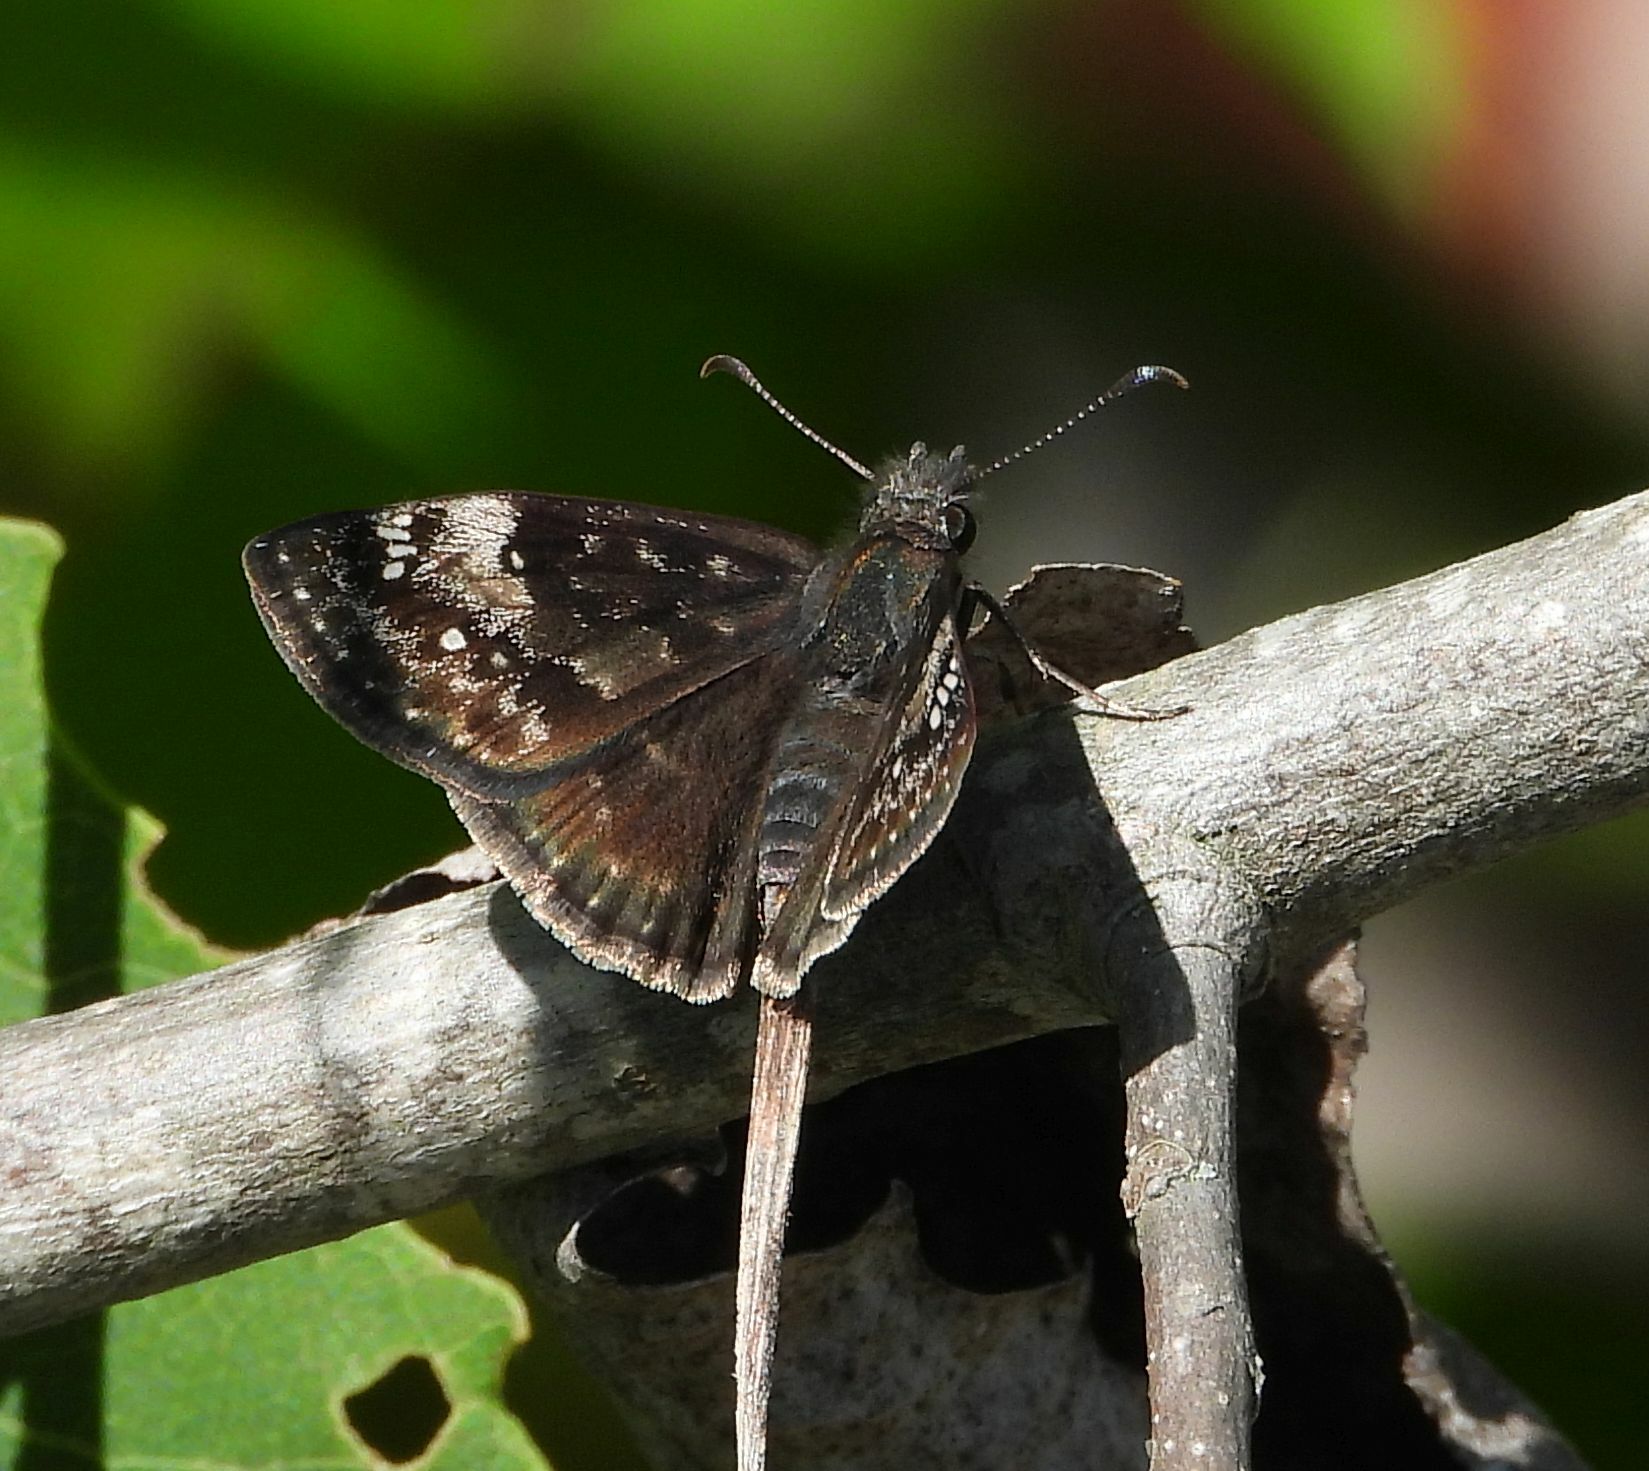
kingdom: Animalia
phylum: Arthropoda
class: Insecta
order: Lepidoptera
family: Hesperiidae
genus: Erynnis
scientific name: Erynnis lucilius
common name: Columbine duskywing
